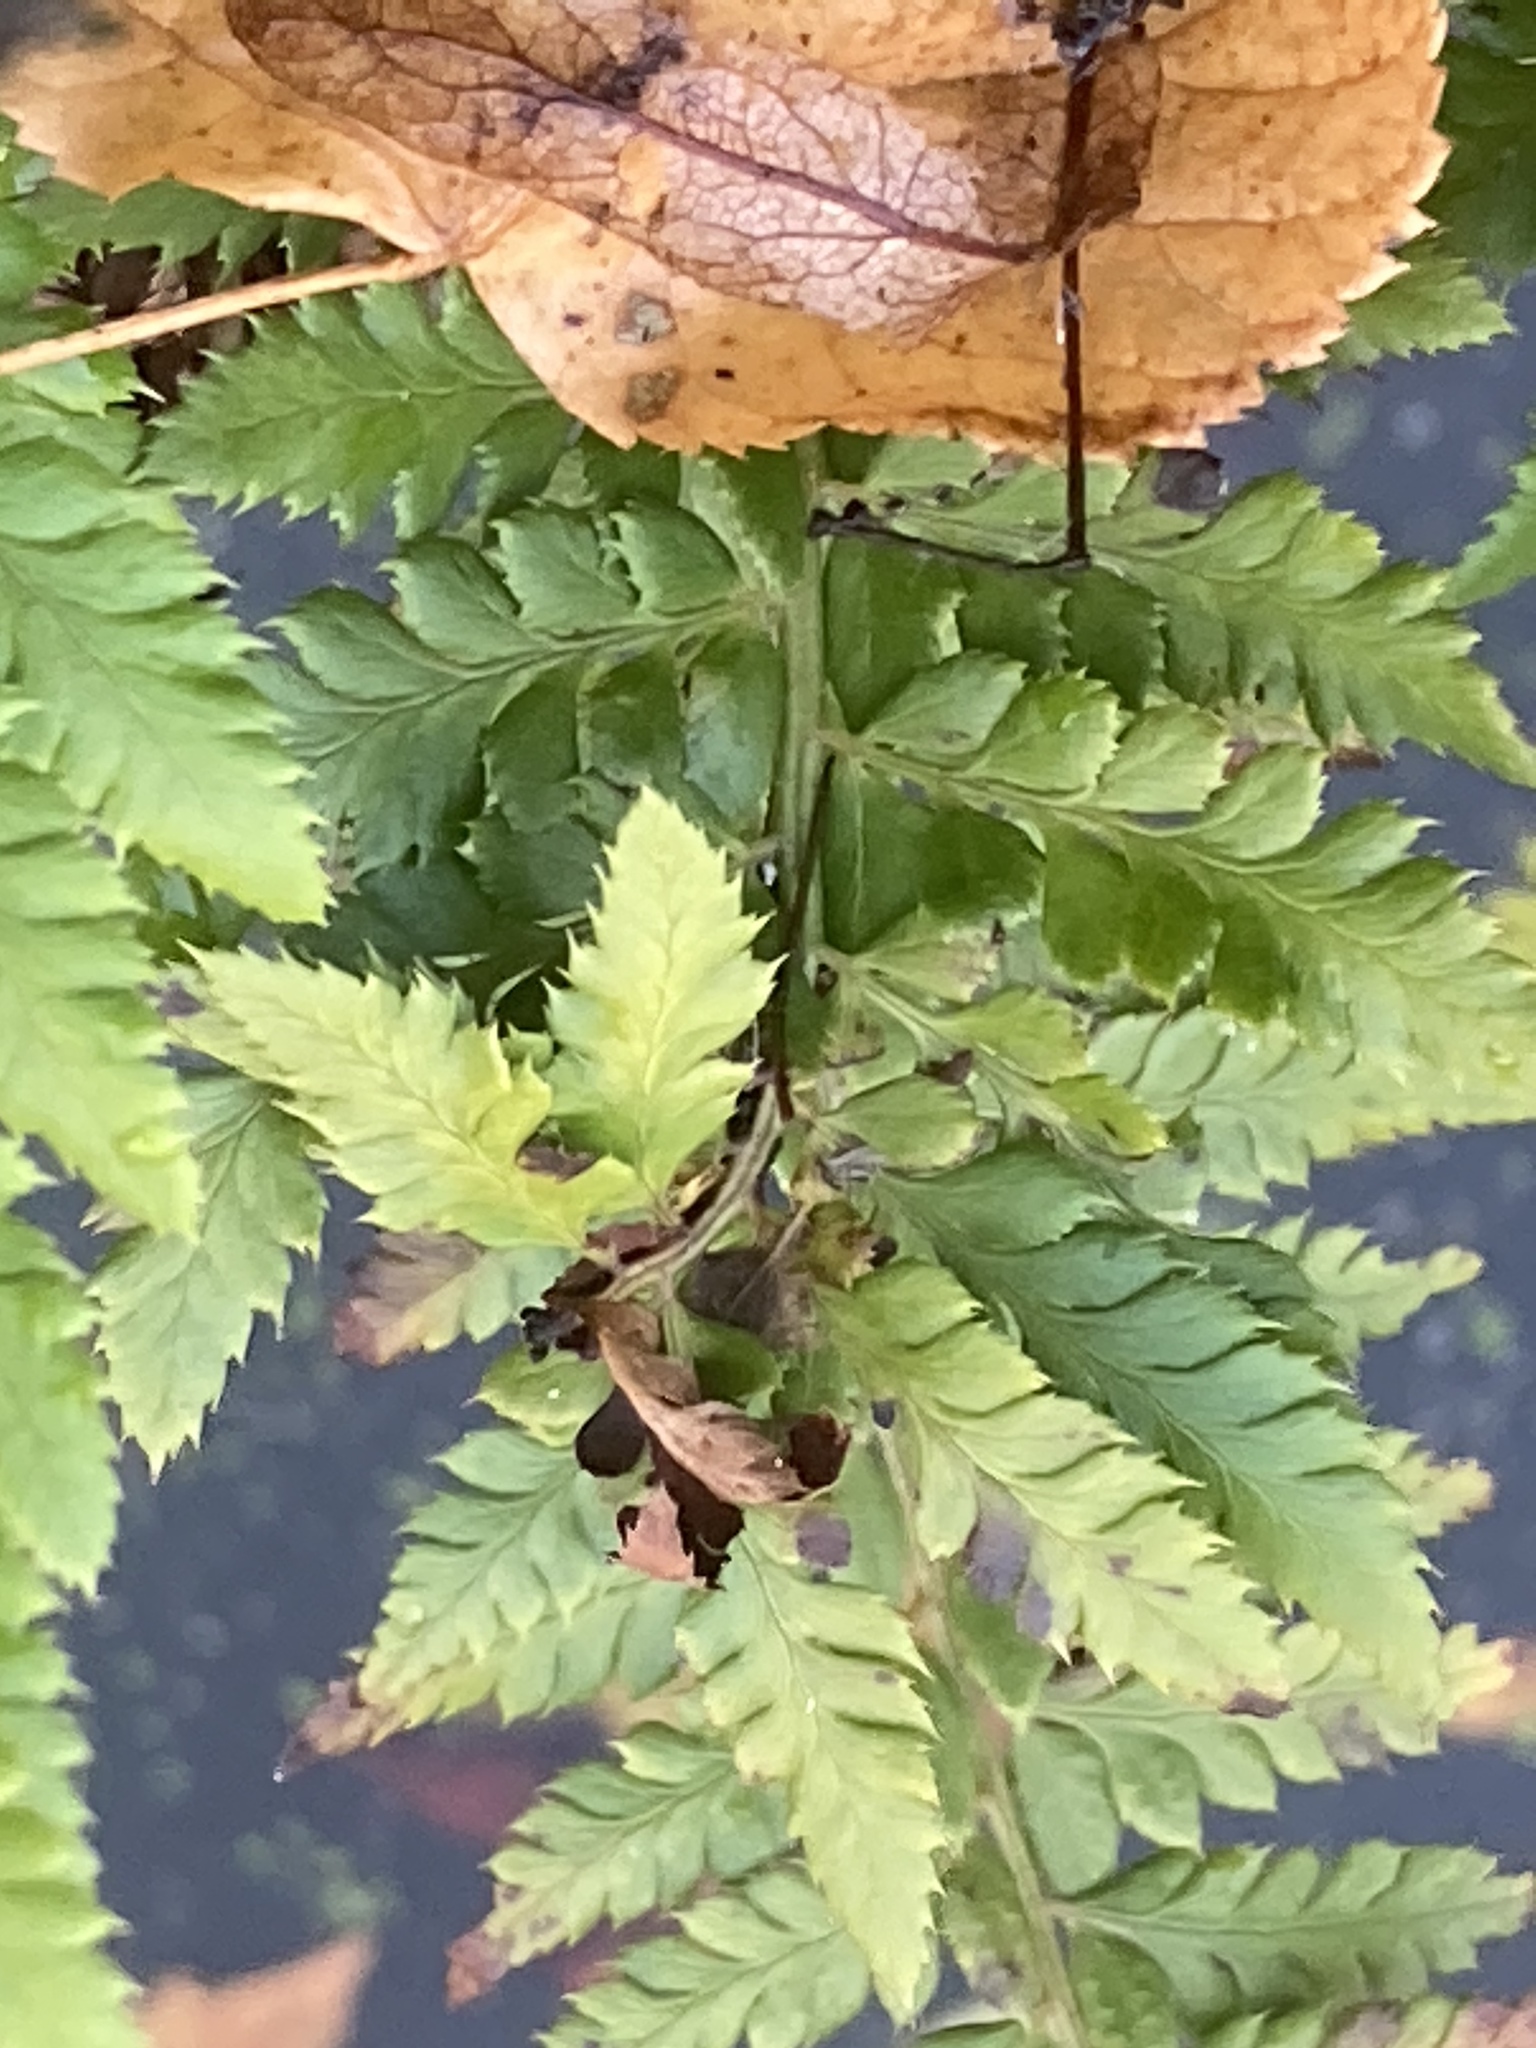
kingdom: Plantae
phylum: Tracheophyta
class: Polypodiopsida
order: Polypodiales
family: Dryopteridaceae
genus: Polystichum
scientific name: Polystichum aculeatum
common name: Hard shield-fern
